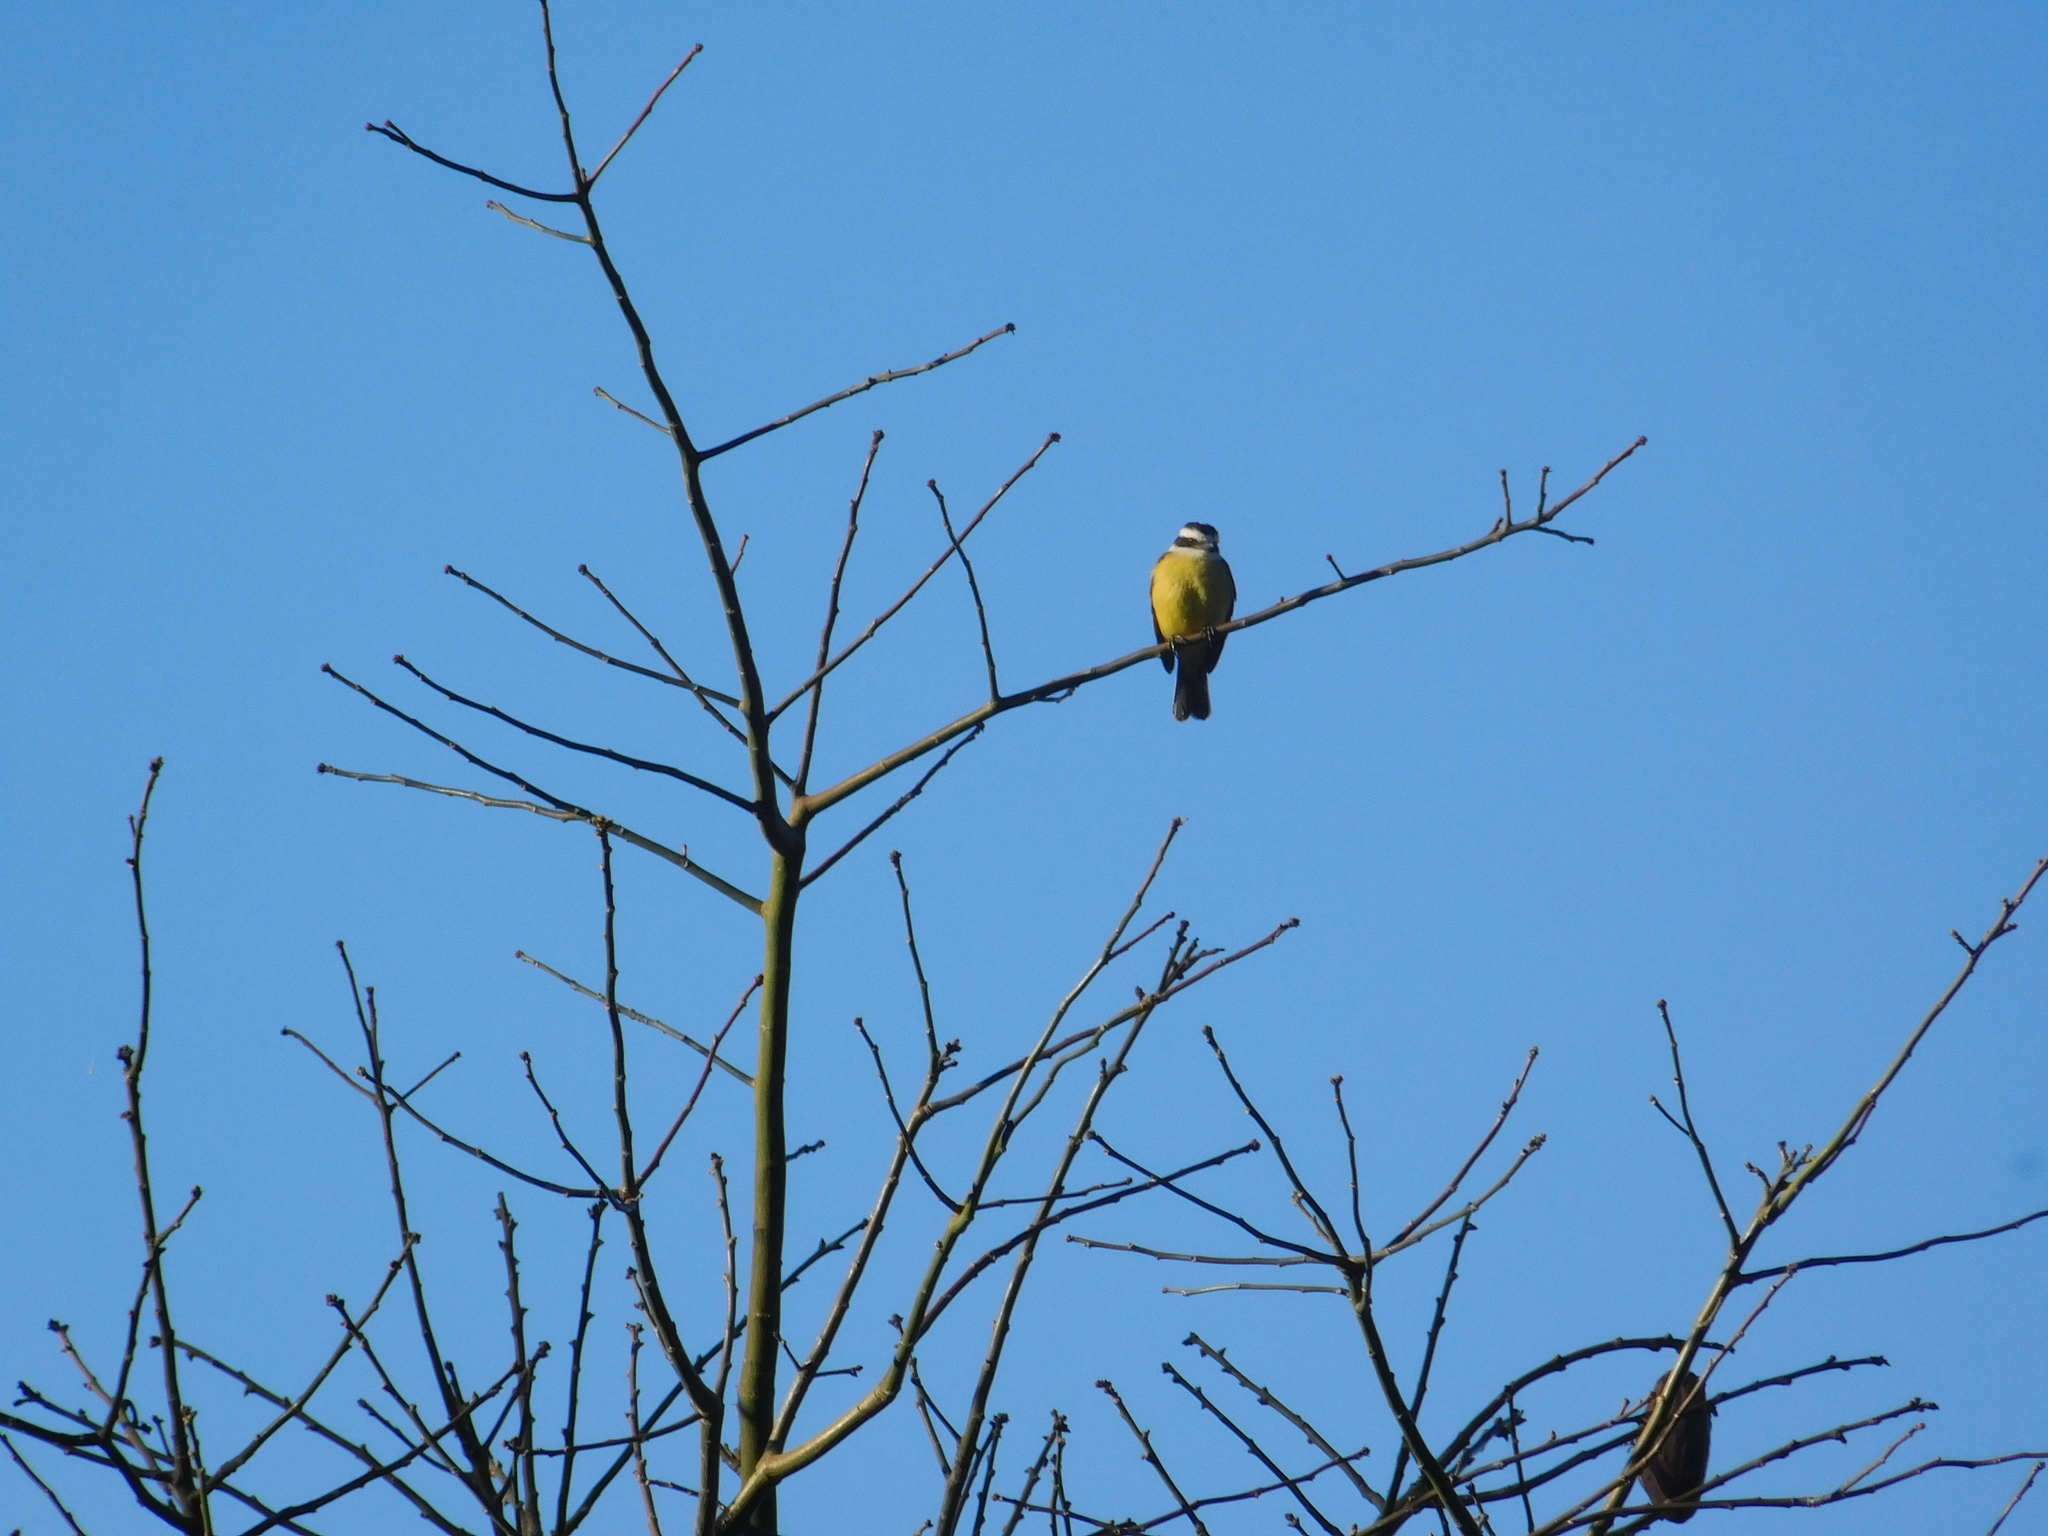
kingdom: Animalia
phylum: Chordata
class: Aves
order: Passeriformes
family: Tyrannidae
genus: Pitangus
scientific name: Pitangus sulphuratus
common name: Great kiskadee
